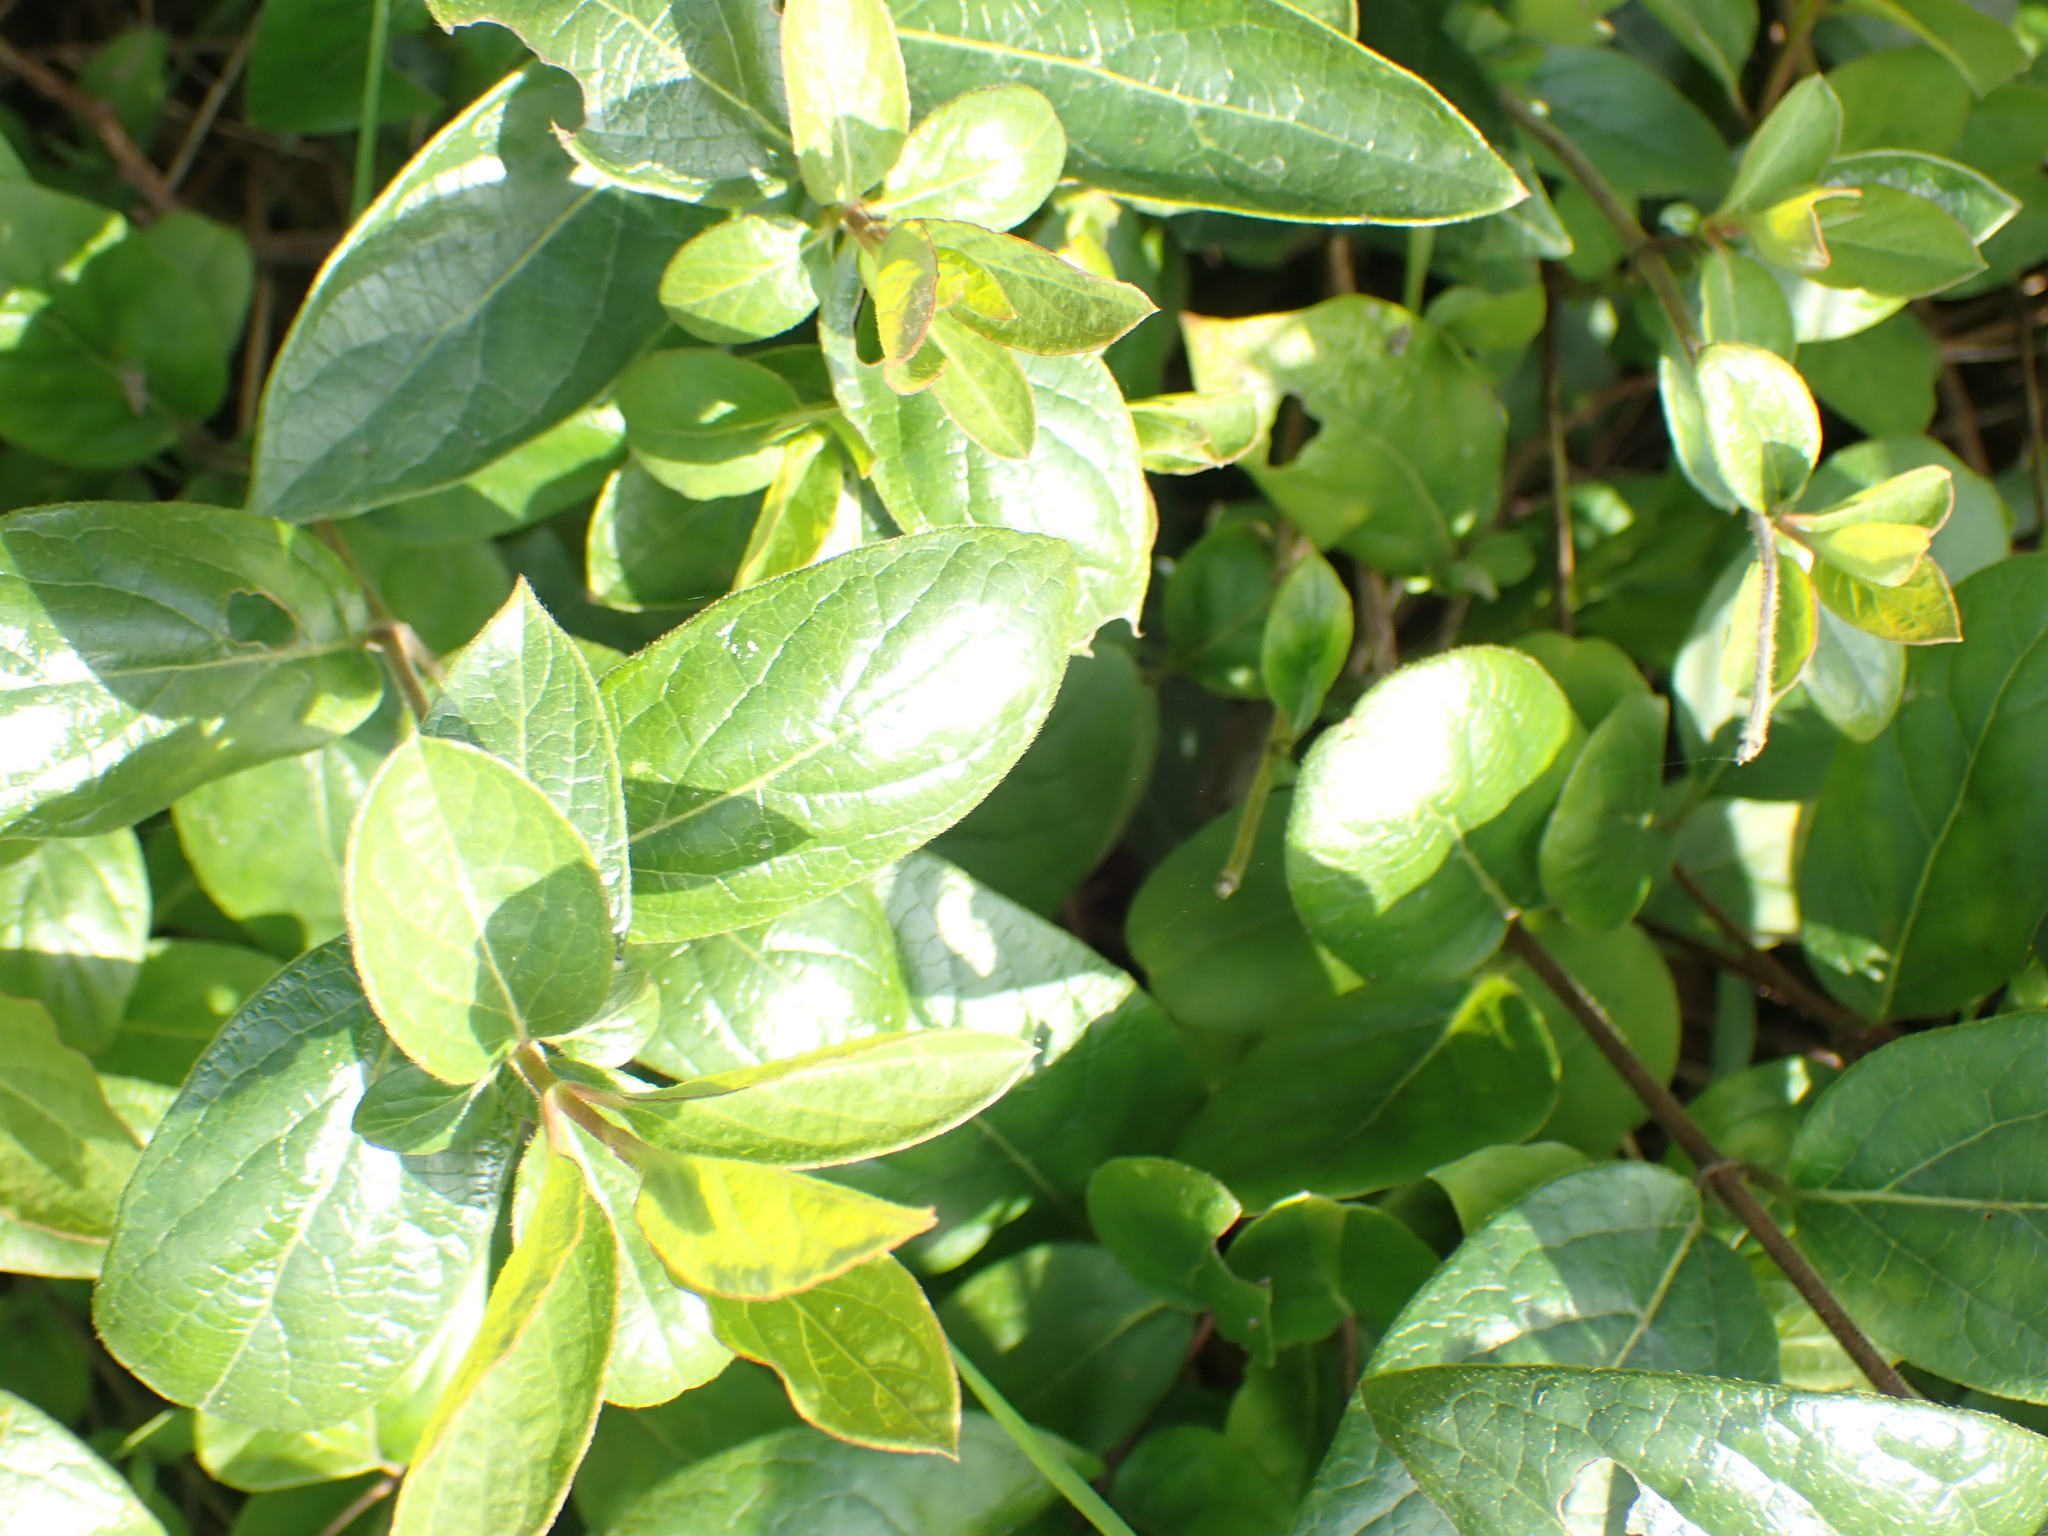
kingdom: Plantae
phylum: Tracheophyta
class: Magnoliopsida
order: Dipsacales
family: Caprifoliaceae
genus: Lonicera
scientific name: Lonicera japonica
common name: Japanese honeysuckle
